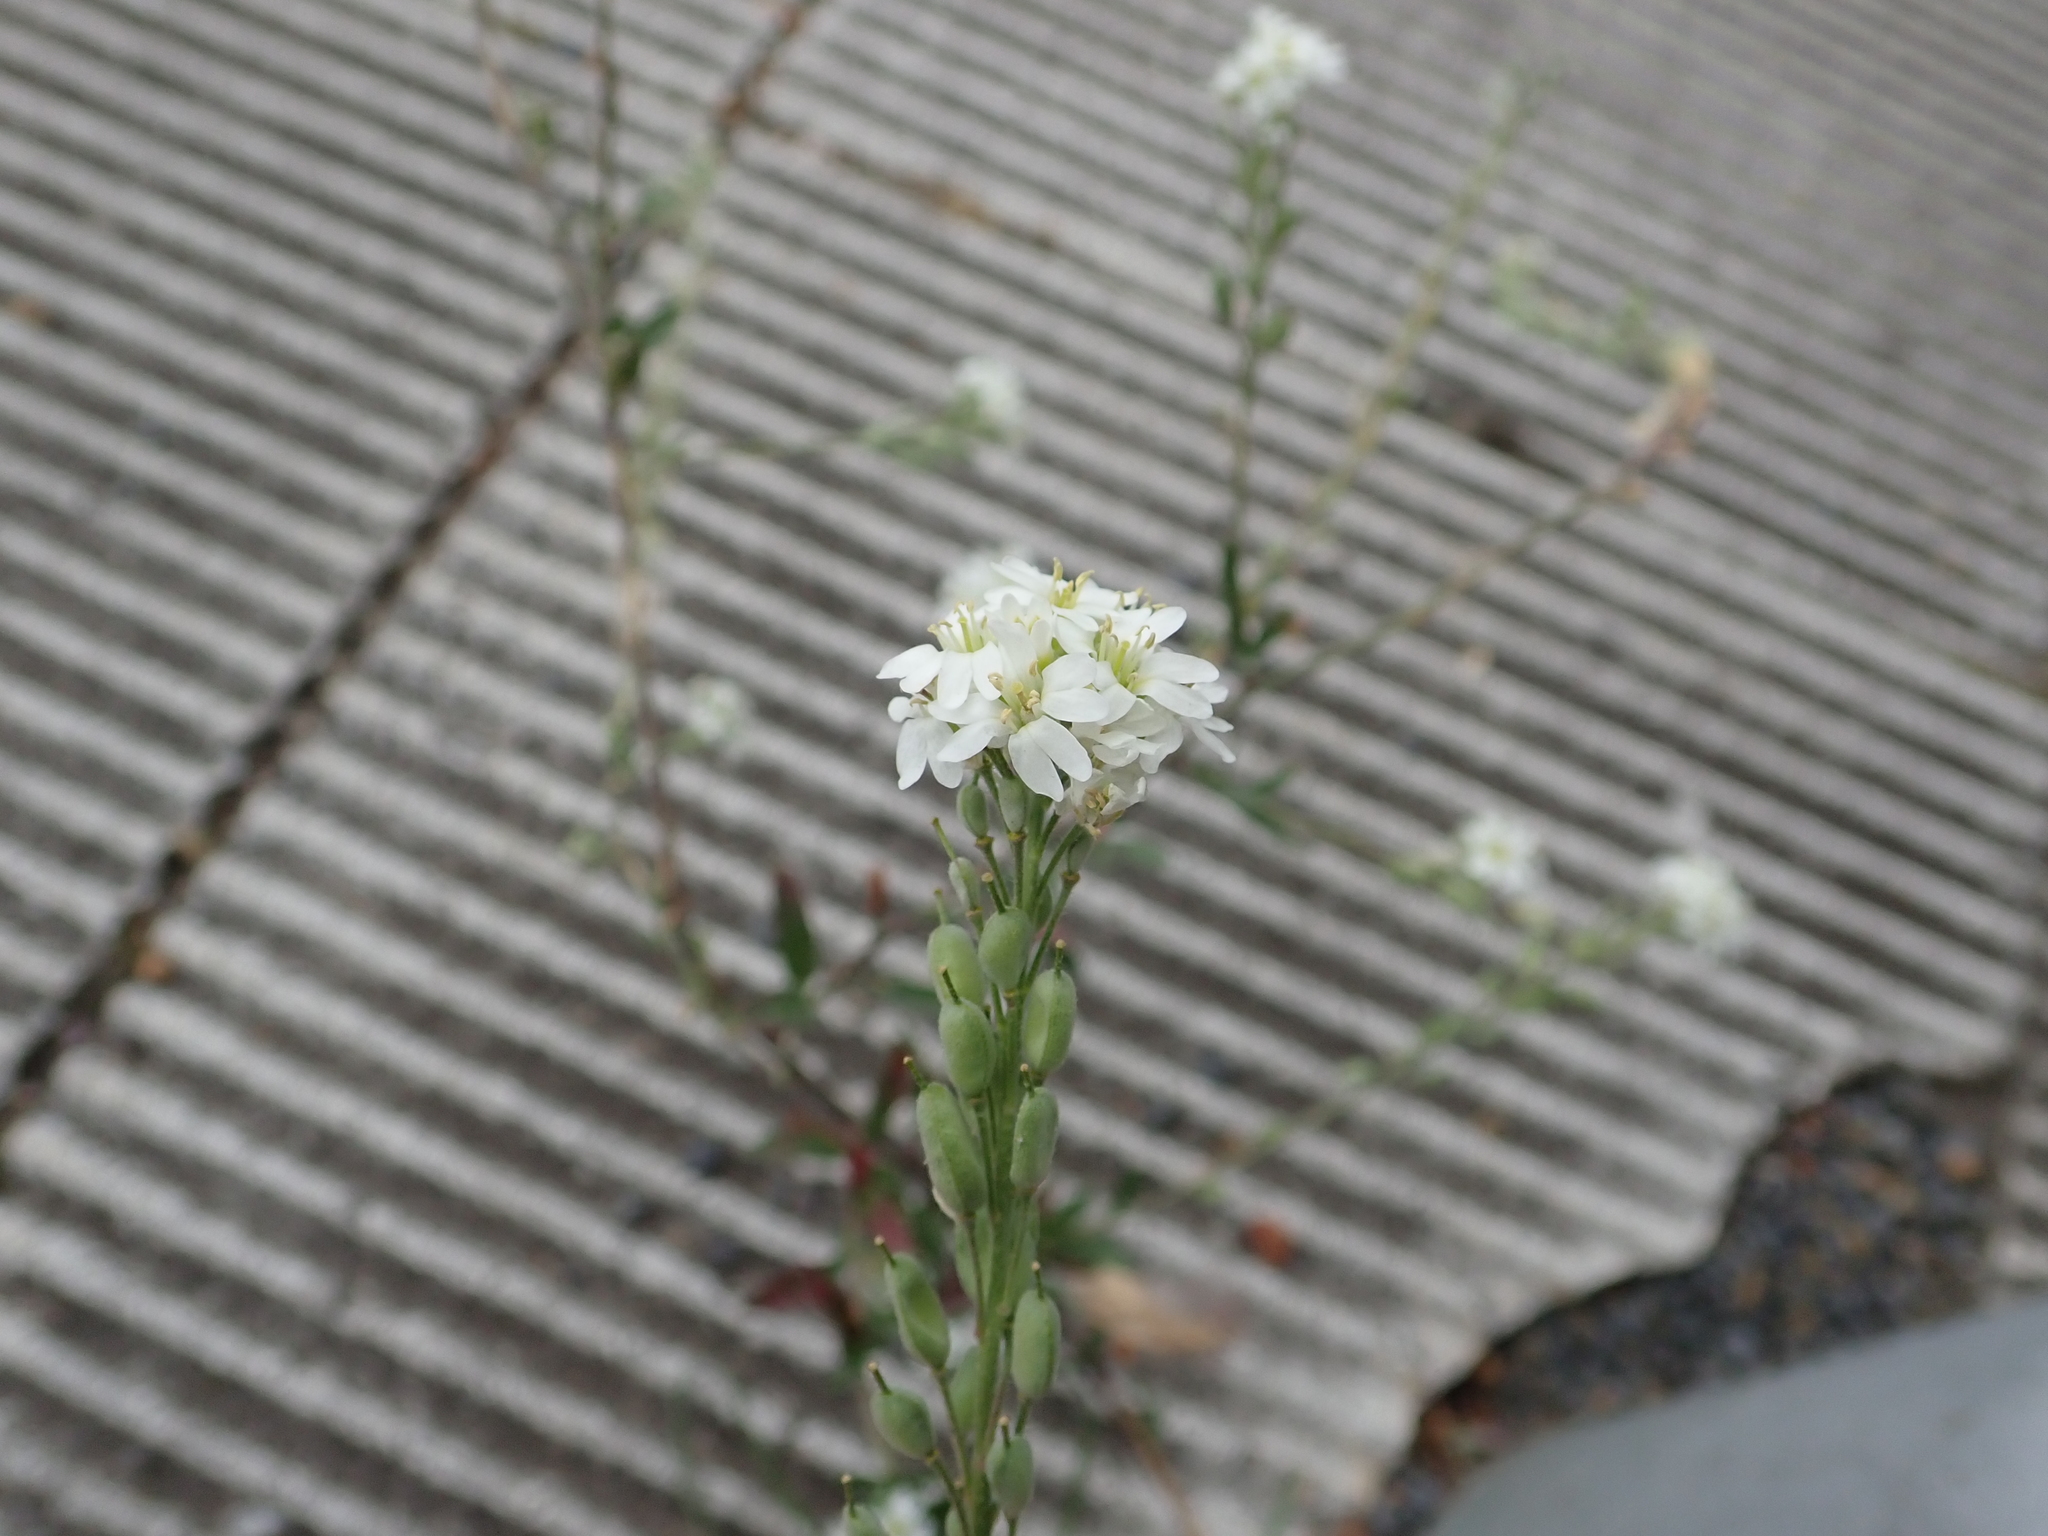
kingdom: Plantae
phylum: Tracheophyta
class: Magnoliopsida
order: Brassicales
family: Brassicaceae
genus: Berteroa
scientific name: Berteroa incana
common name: Hoary alison
